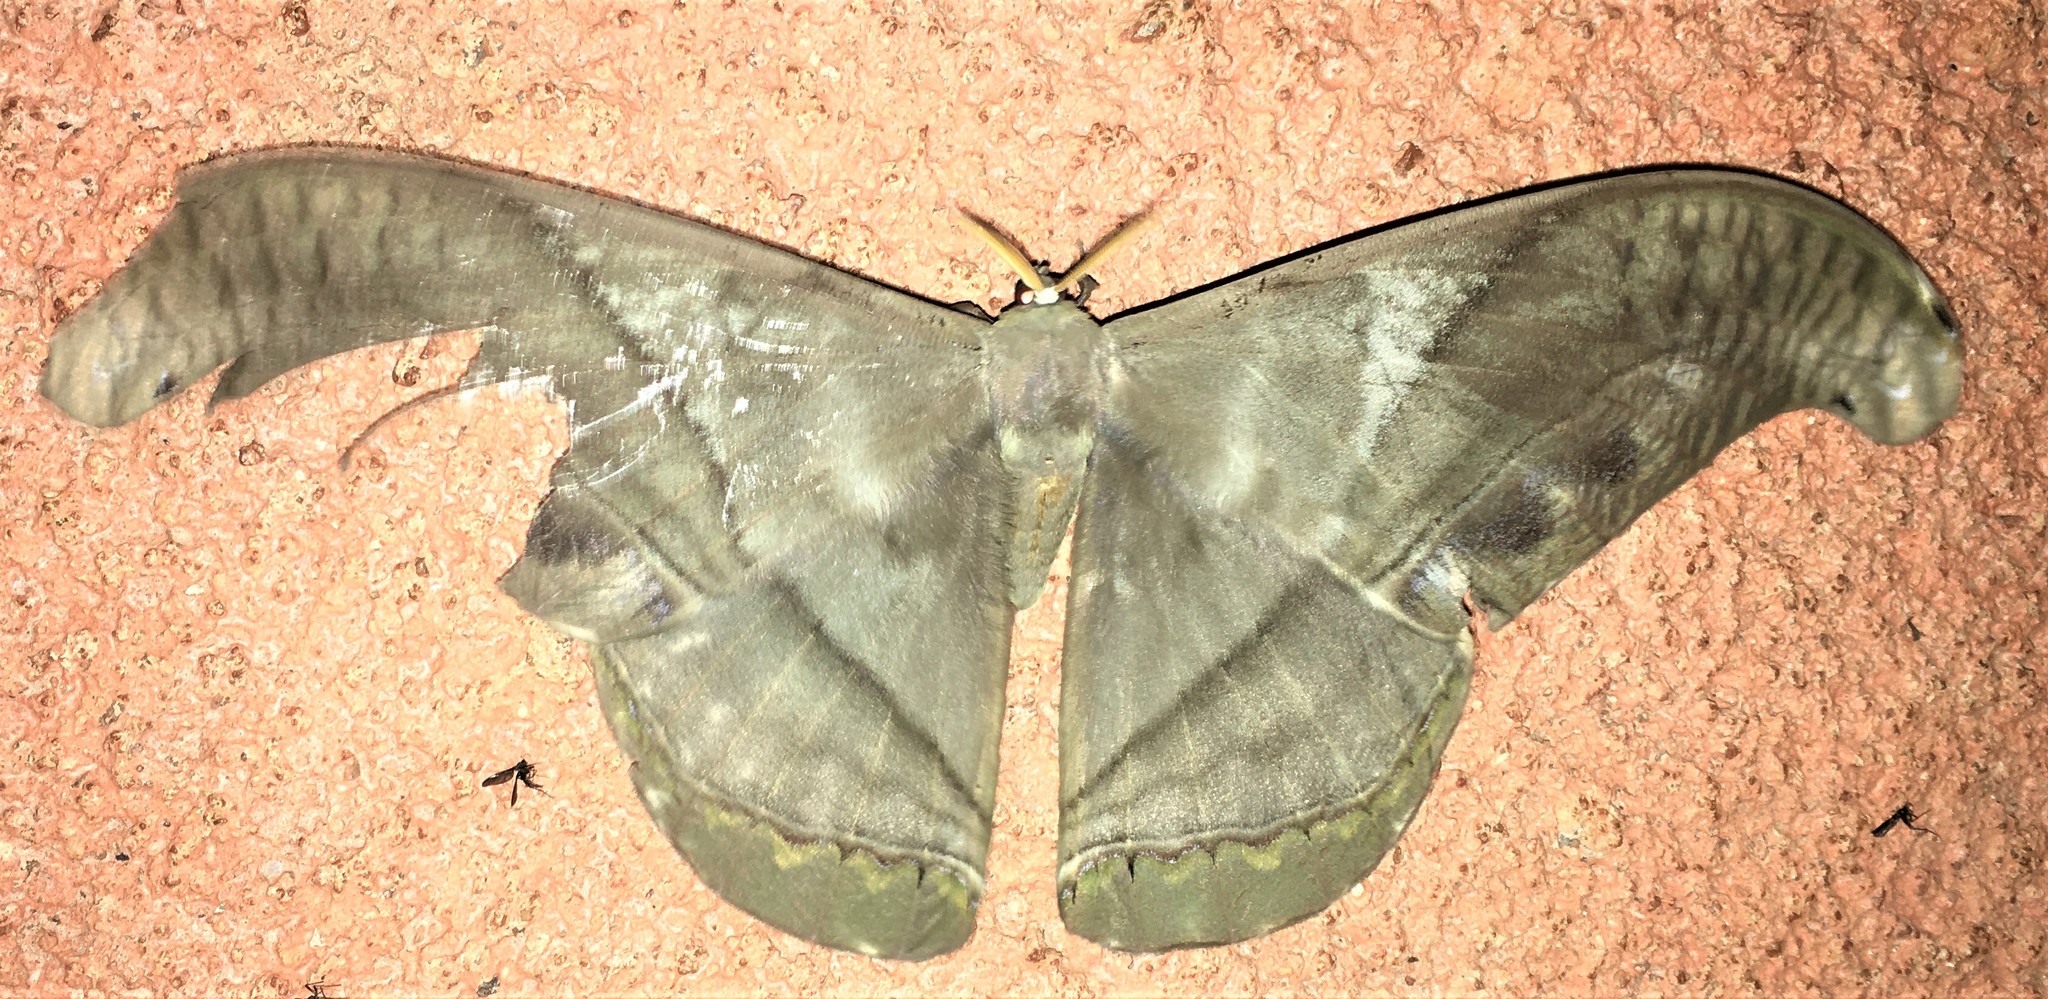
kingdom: Animalia
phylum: Arthropoda
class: Insecta
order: Lepidoptera
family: Saturniidae
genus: Rhescyntis
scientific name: Rhescyntis hermes
